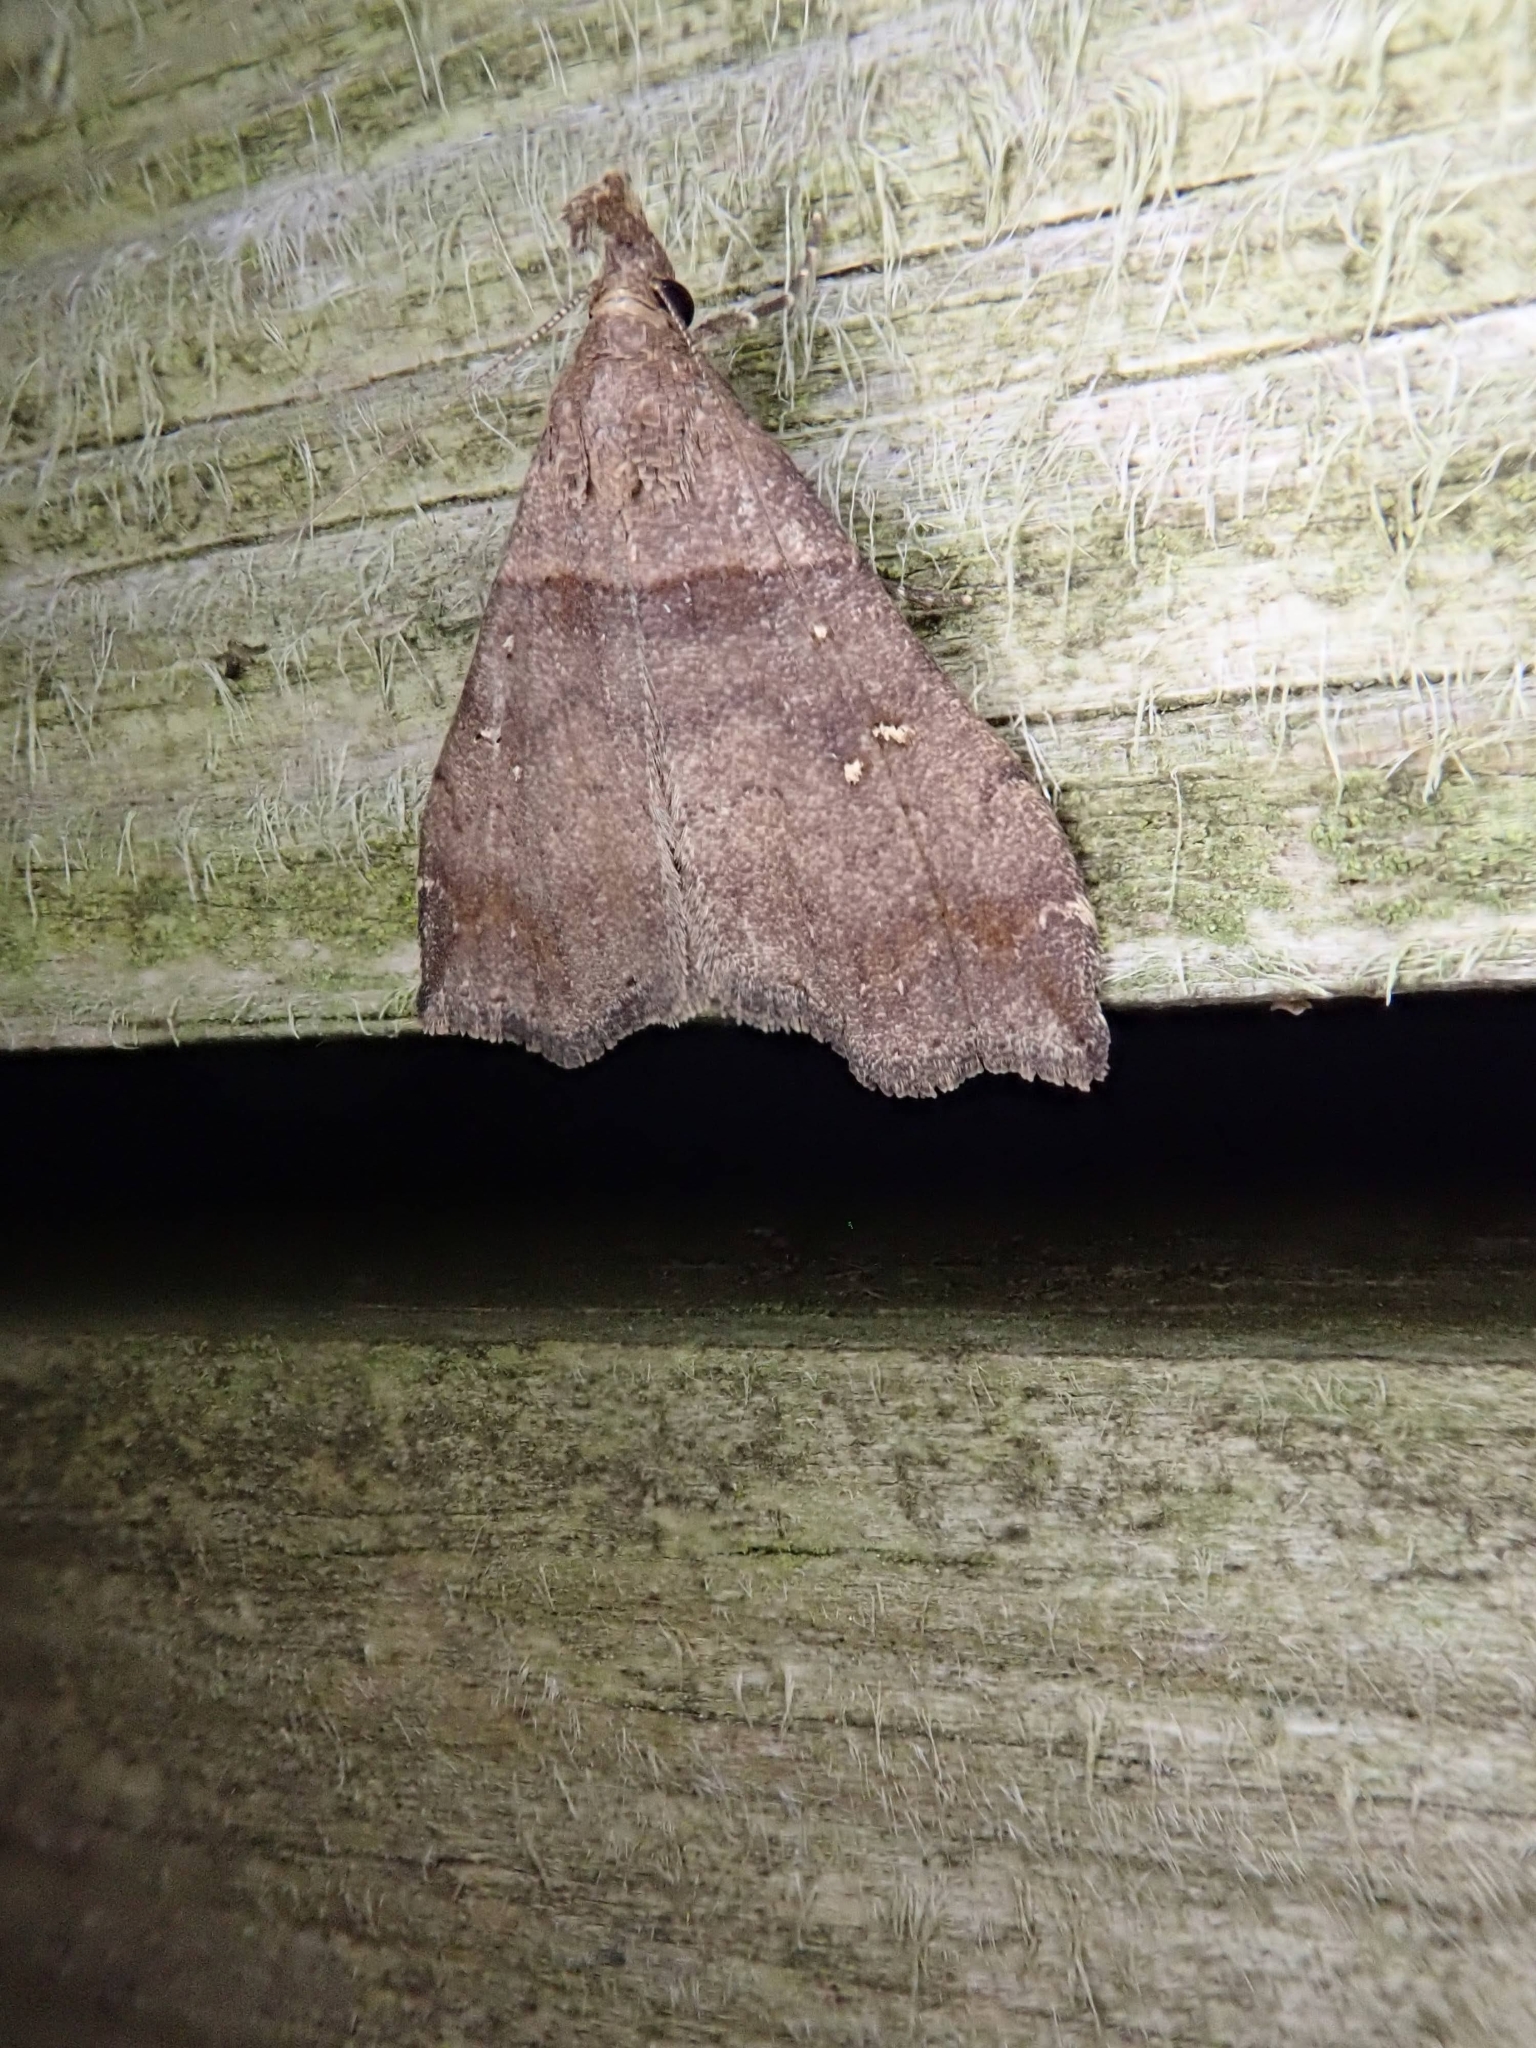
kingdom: Animalia
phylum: Arthropoda
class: Insecta
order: Lepidoptera
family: Erebidae
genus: Lascoria
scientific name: Lascoria ambigualis
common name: Ambiguous moth
